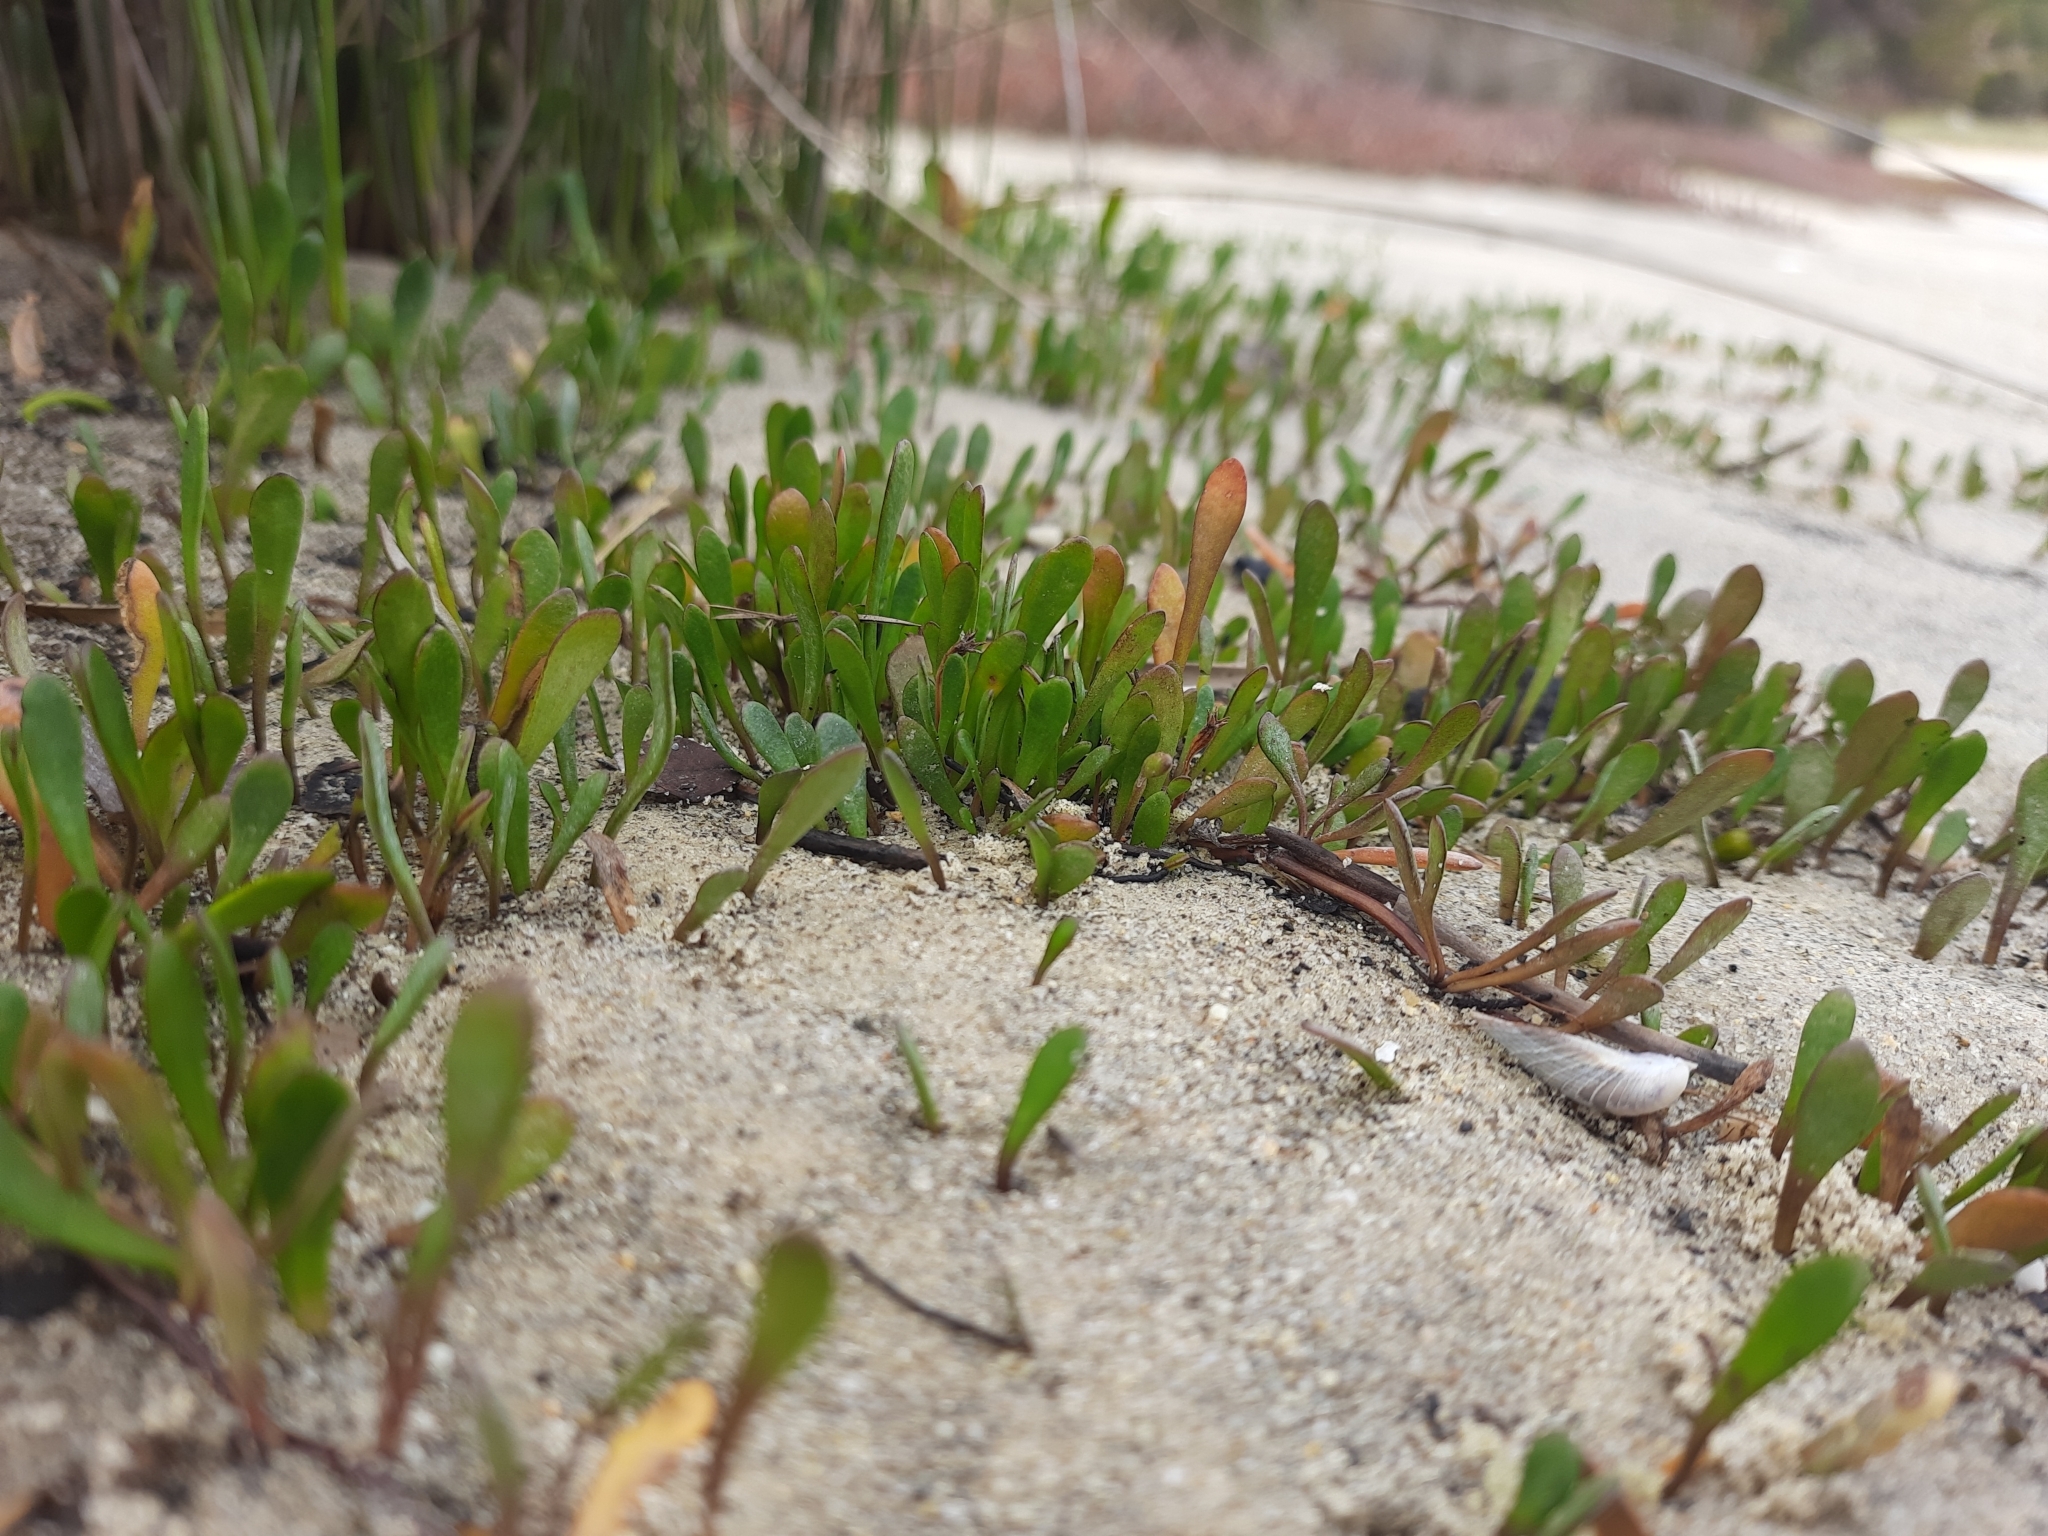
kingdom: Plantae
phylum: Tracheophyta
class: Magnoliopsida
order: Asterales
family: Goodeniaceae
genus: Goodenia
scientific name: Goodenia radicans
